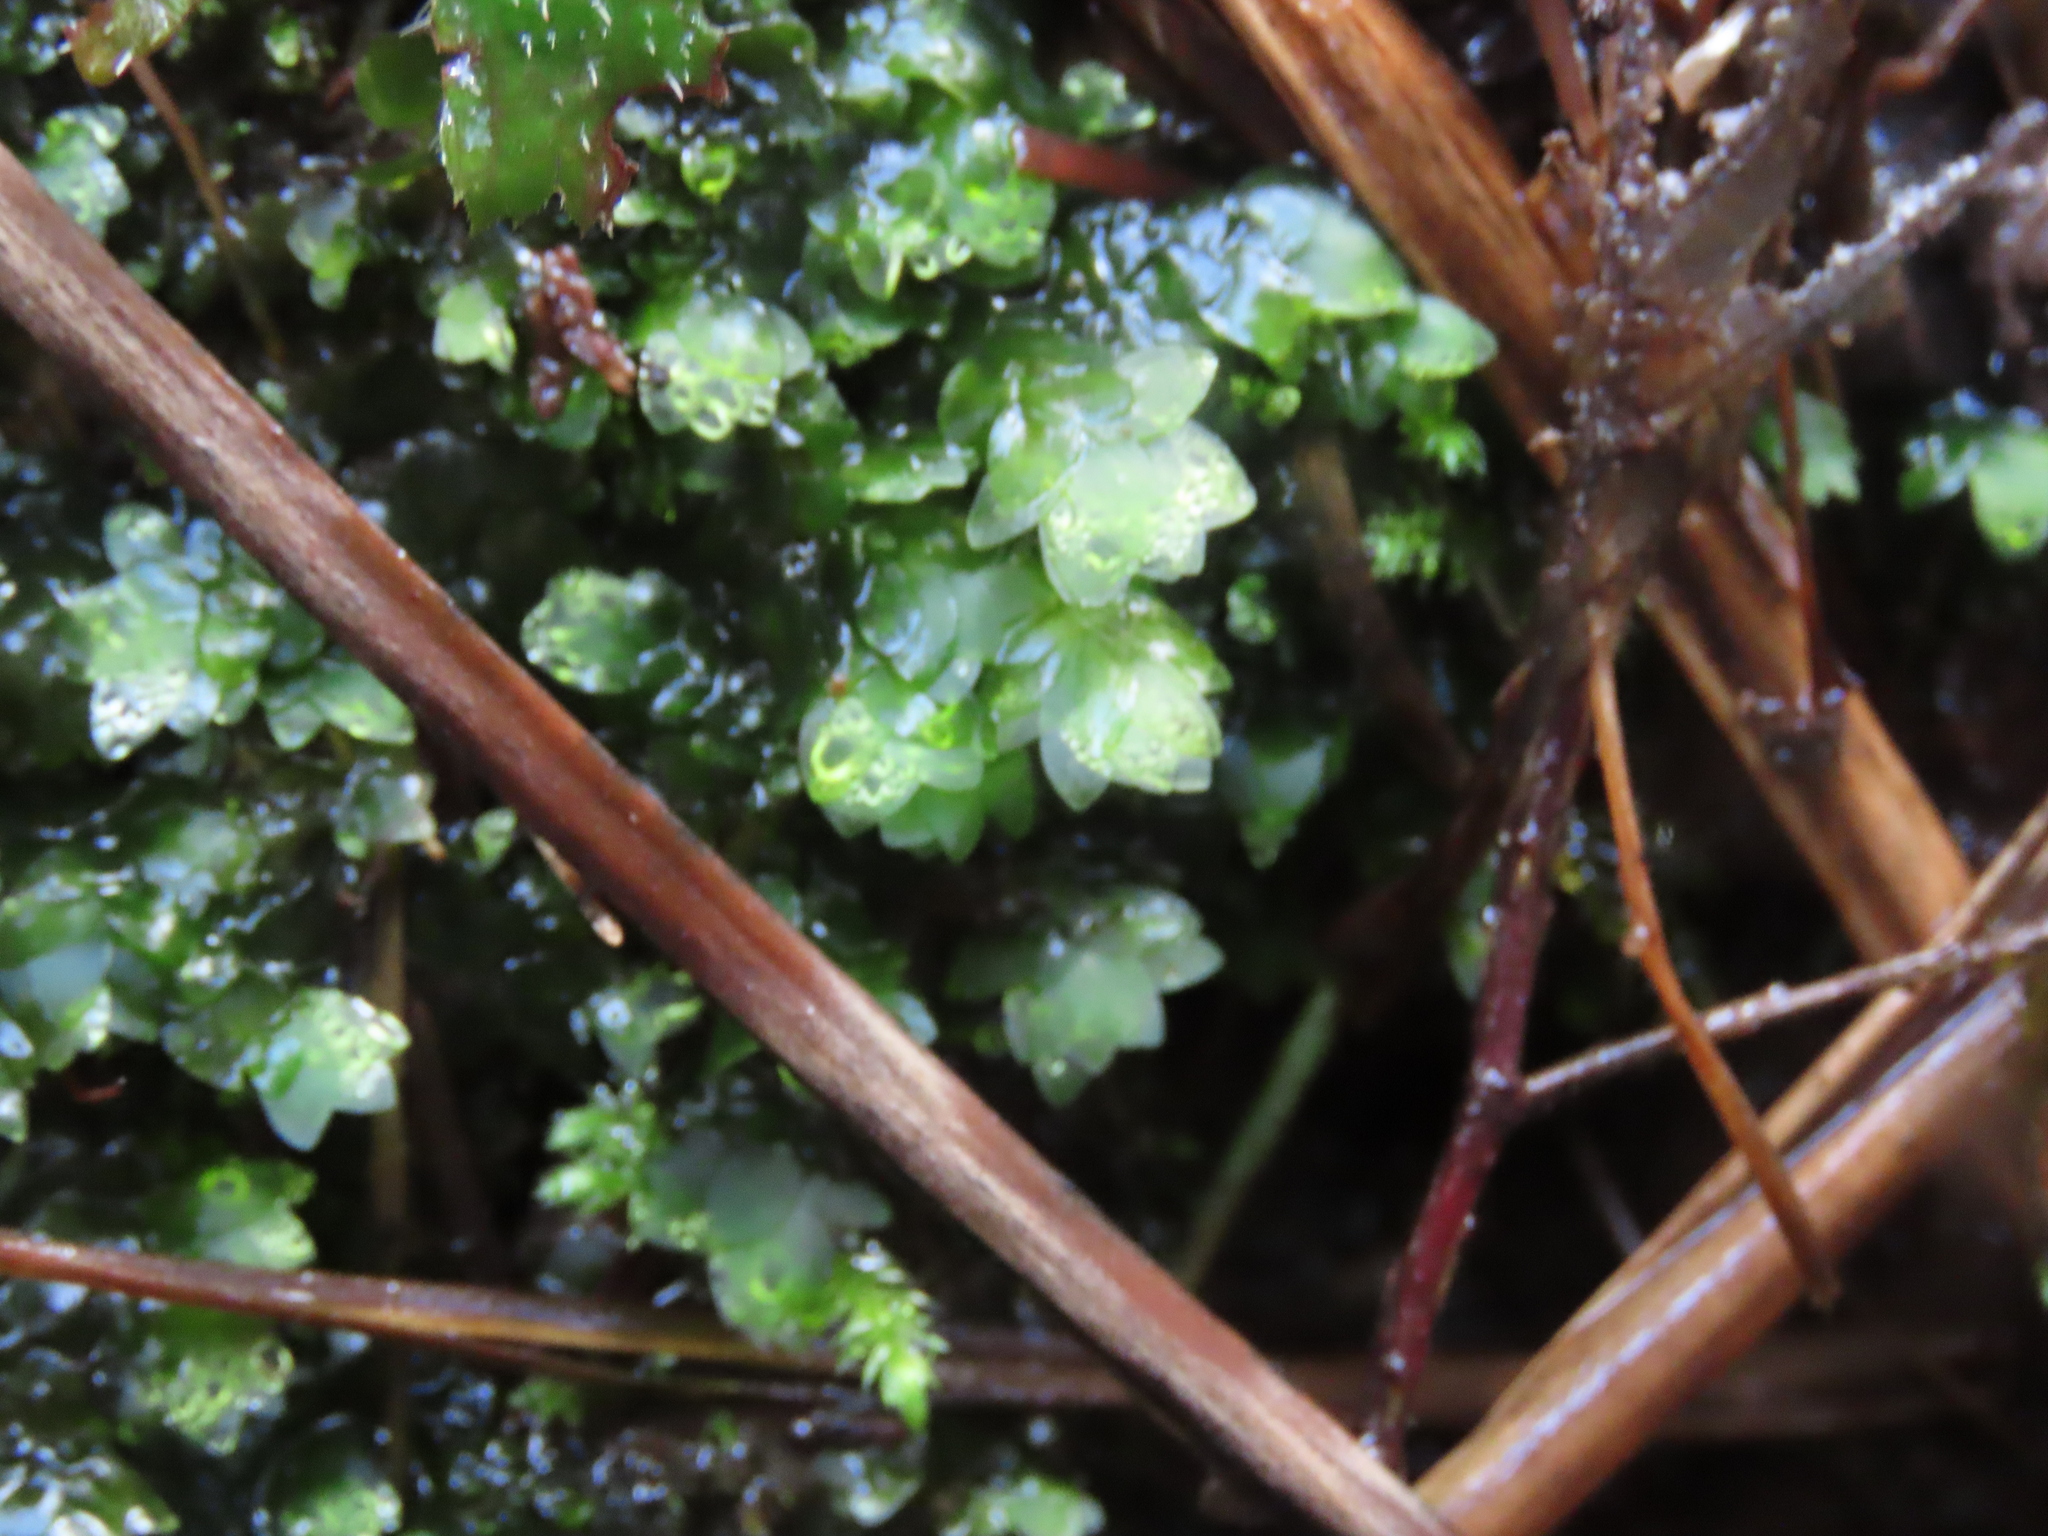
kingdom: Plantae
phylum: Bryophyta
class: Bryopsida
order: Hookeriales
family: Hookeriaceae
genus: Hookeria
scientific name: Hookeria lucens
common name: Shining hookeria
